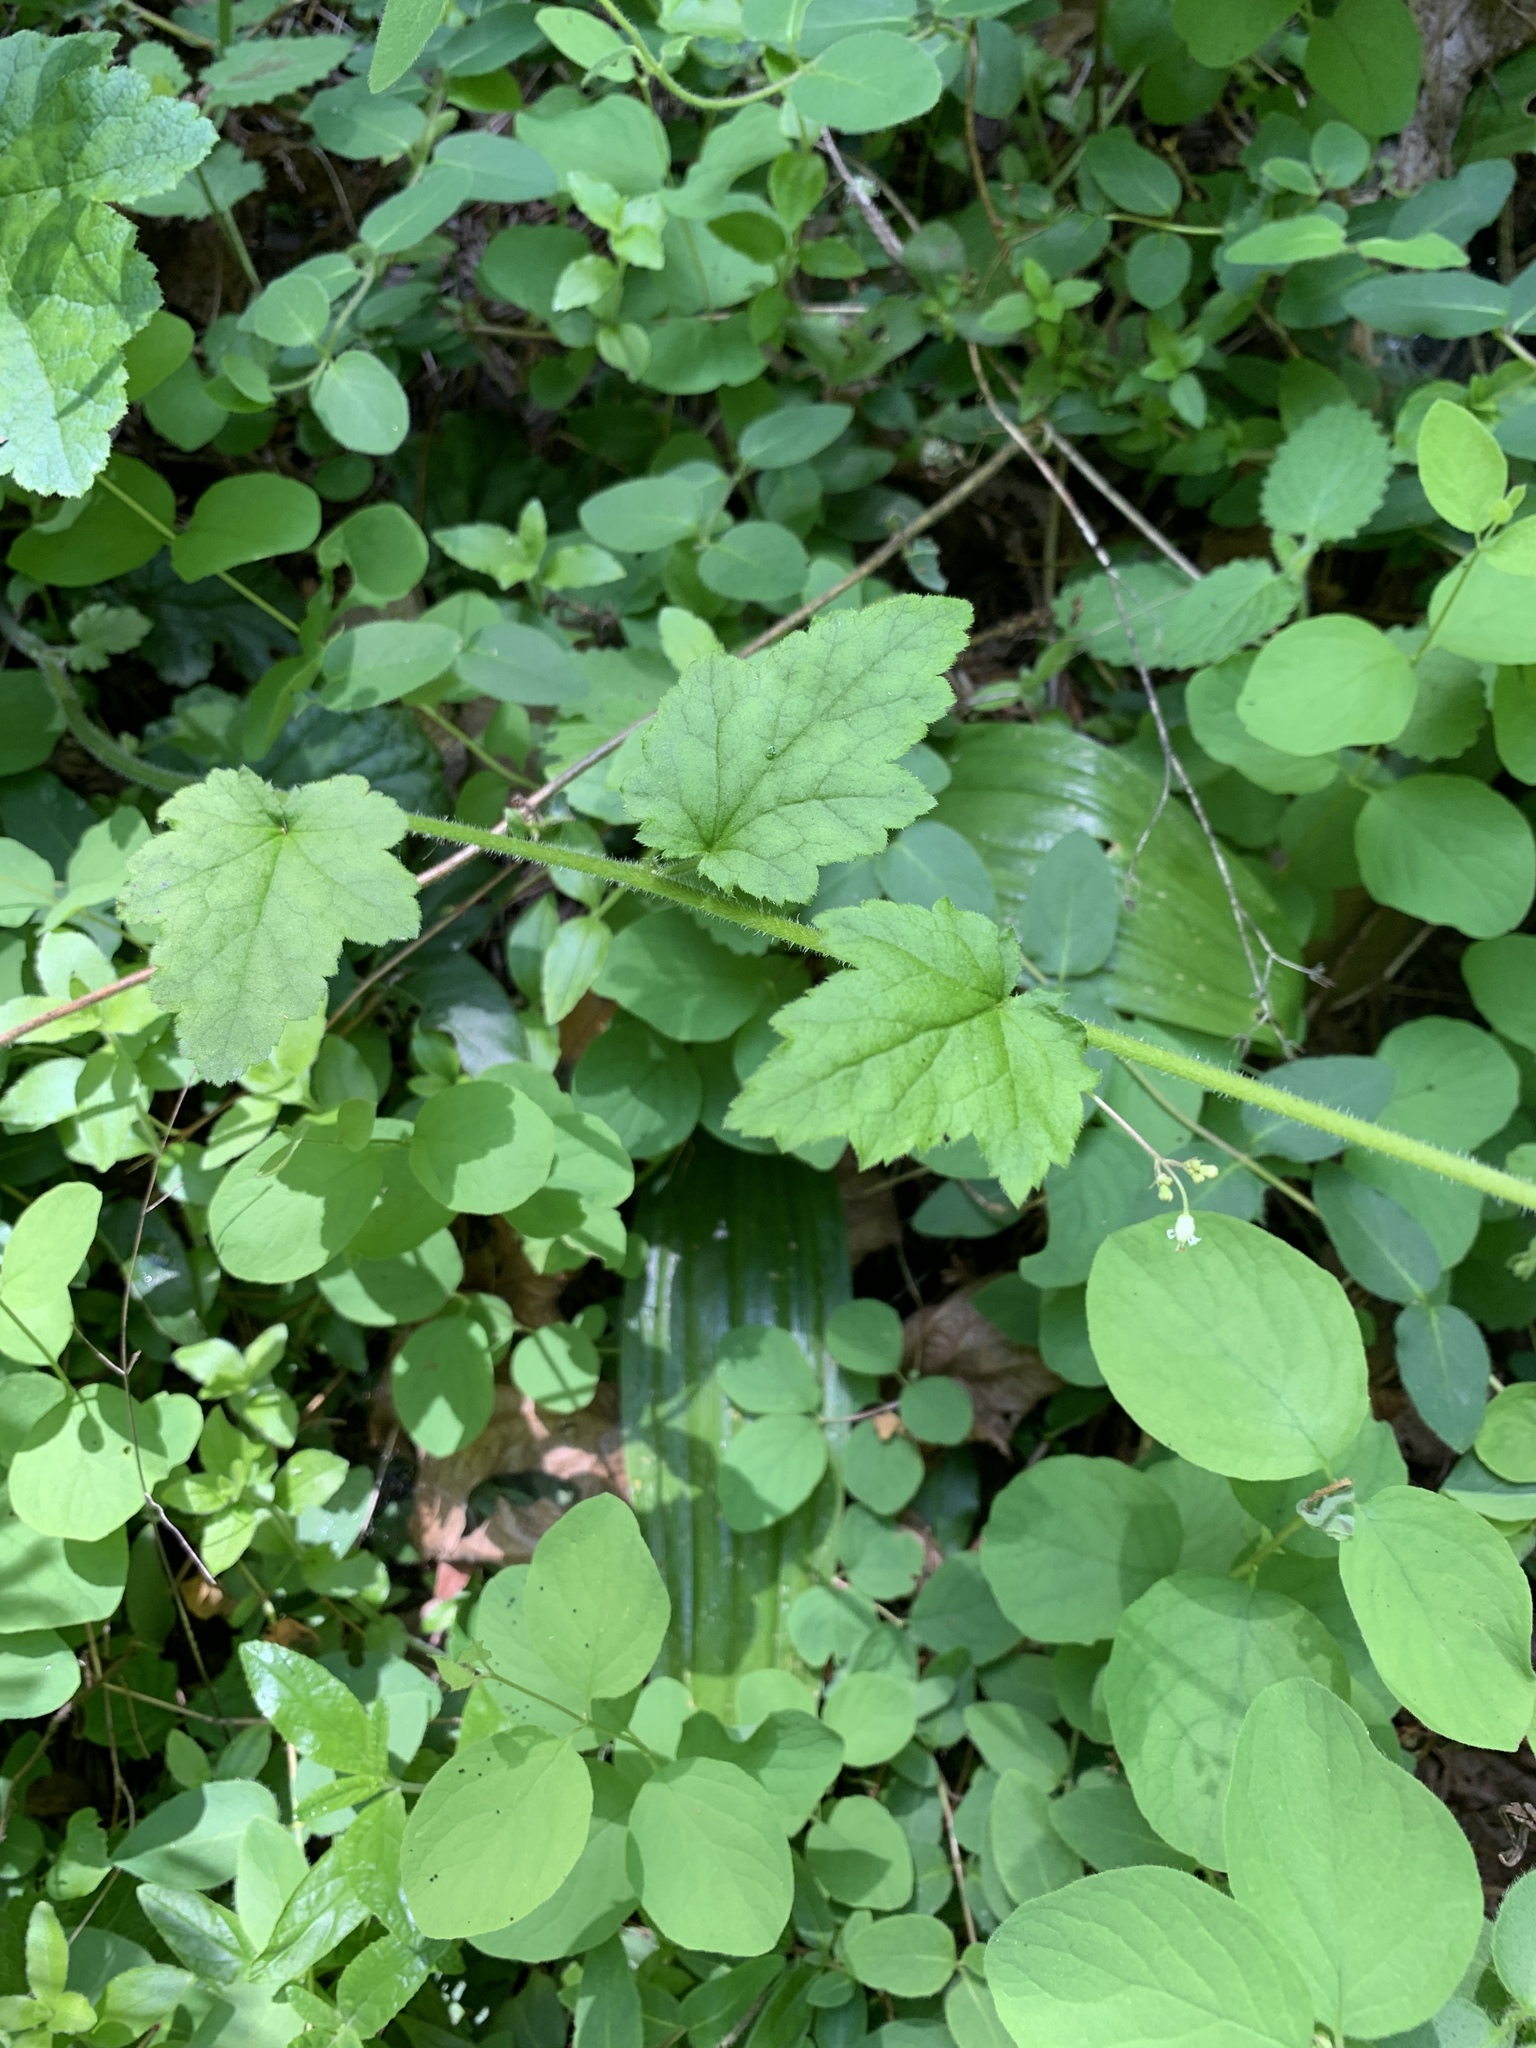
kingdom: Plantae
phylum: Tracheophyta
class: Magnoliopsida
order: Saxifragales
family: Saxifragaceae
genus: Heuchera
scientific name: Heuchera micrantha
